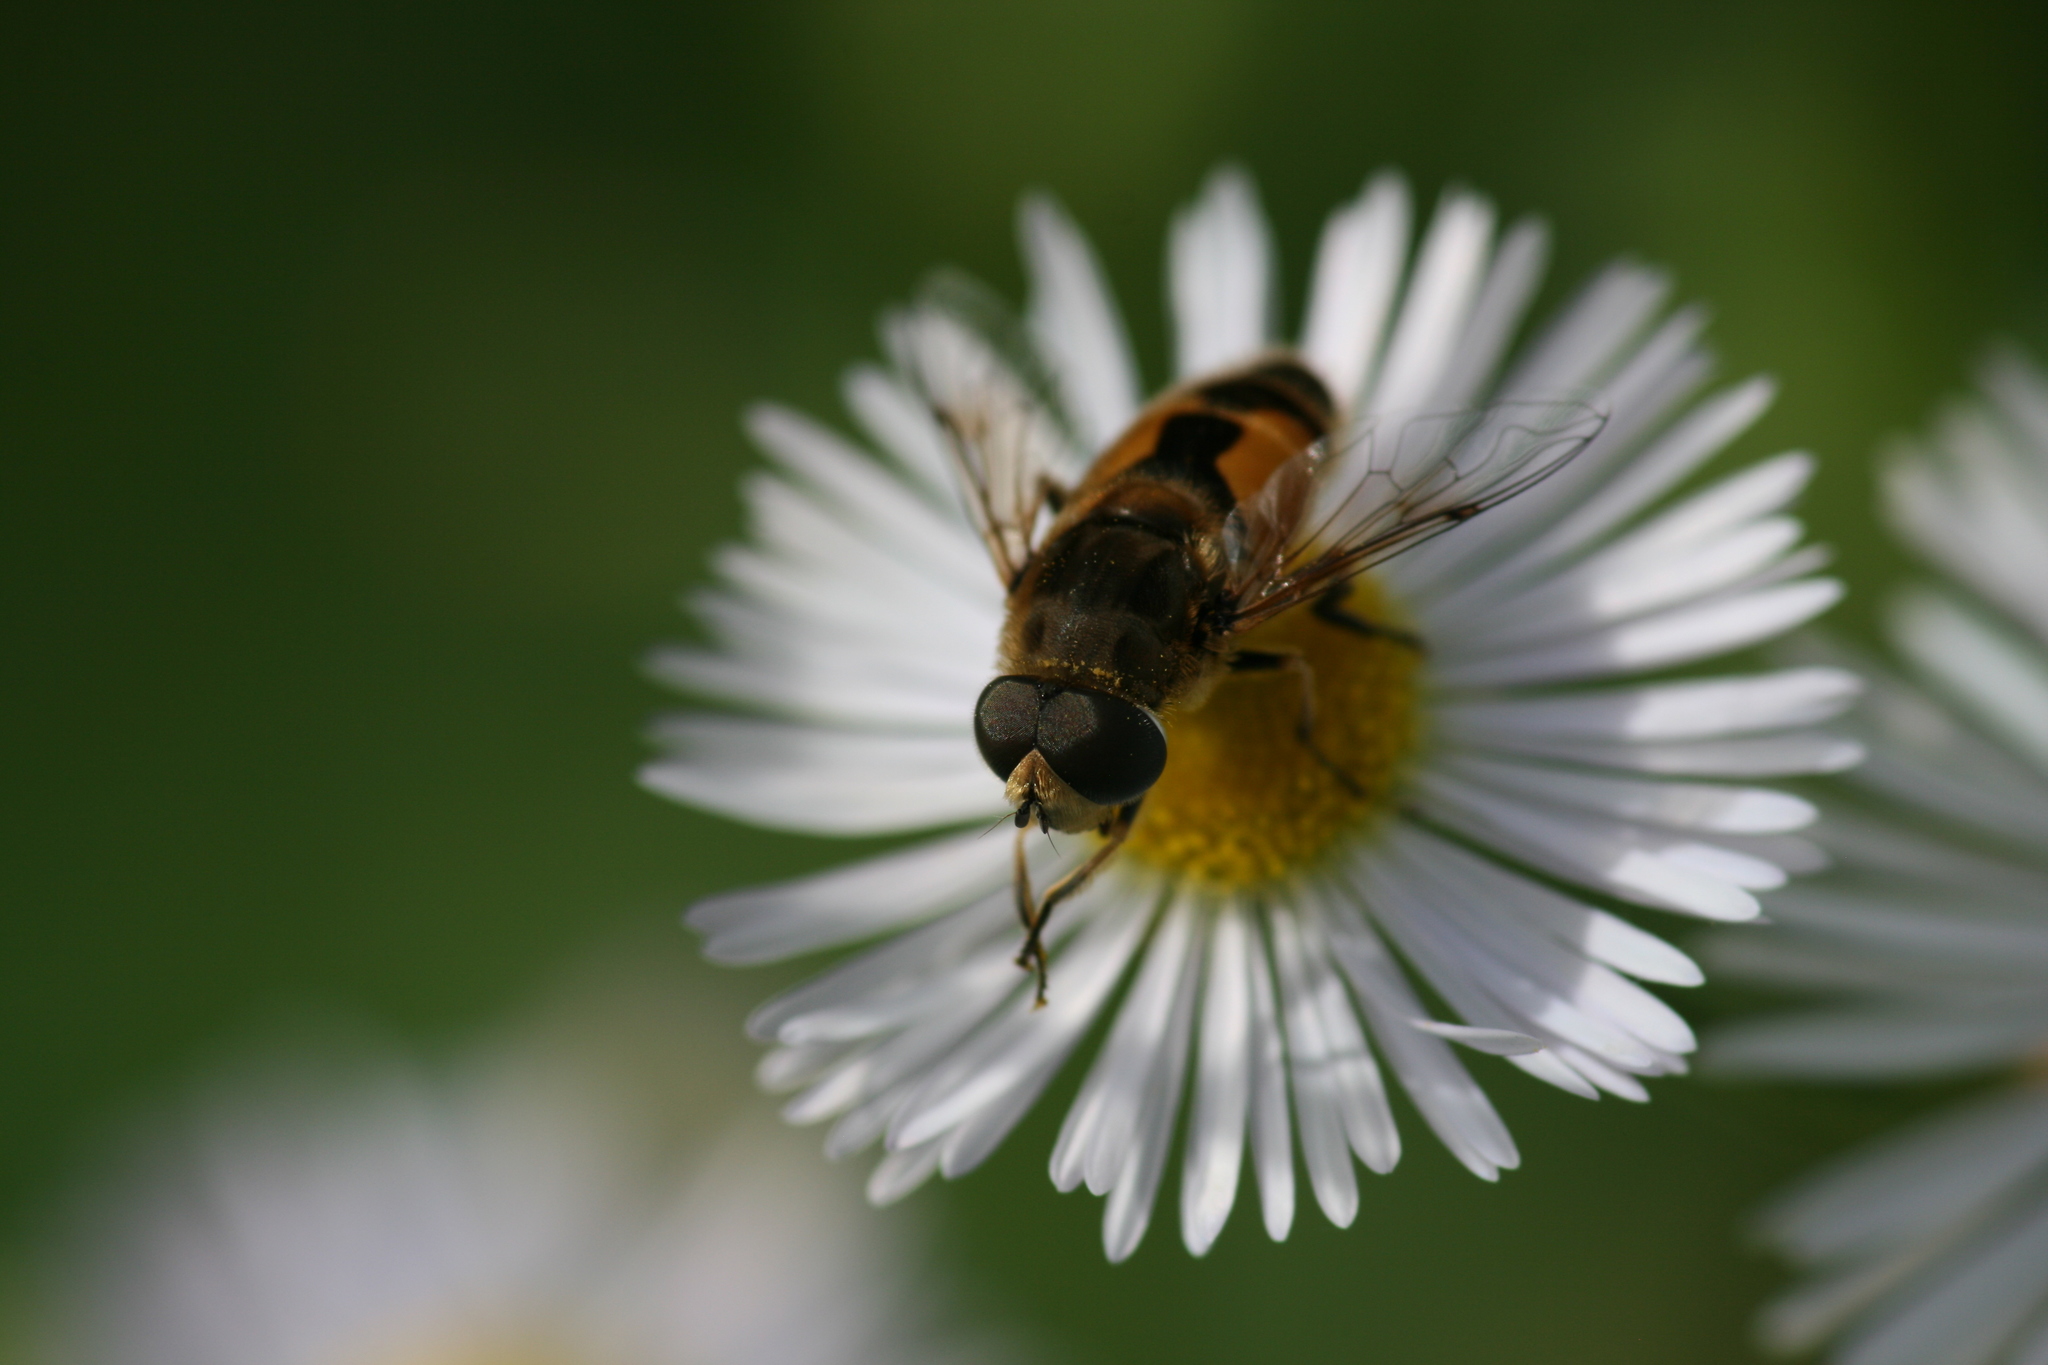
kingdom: Animalia
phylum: Arthropoda
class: Insecta
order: Diptera
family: Syrphidae
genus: Eristalis
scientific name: Eristalis arbustorum
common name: Hover fly
